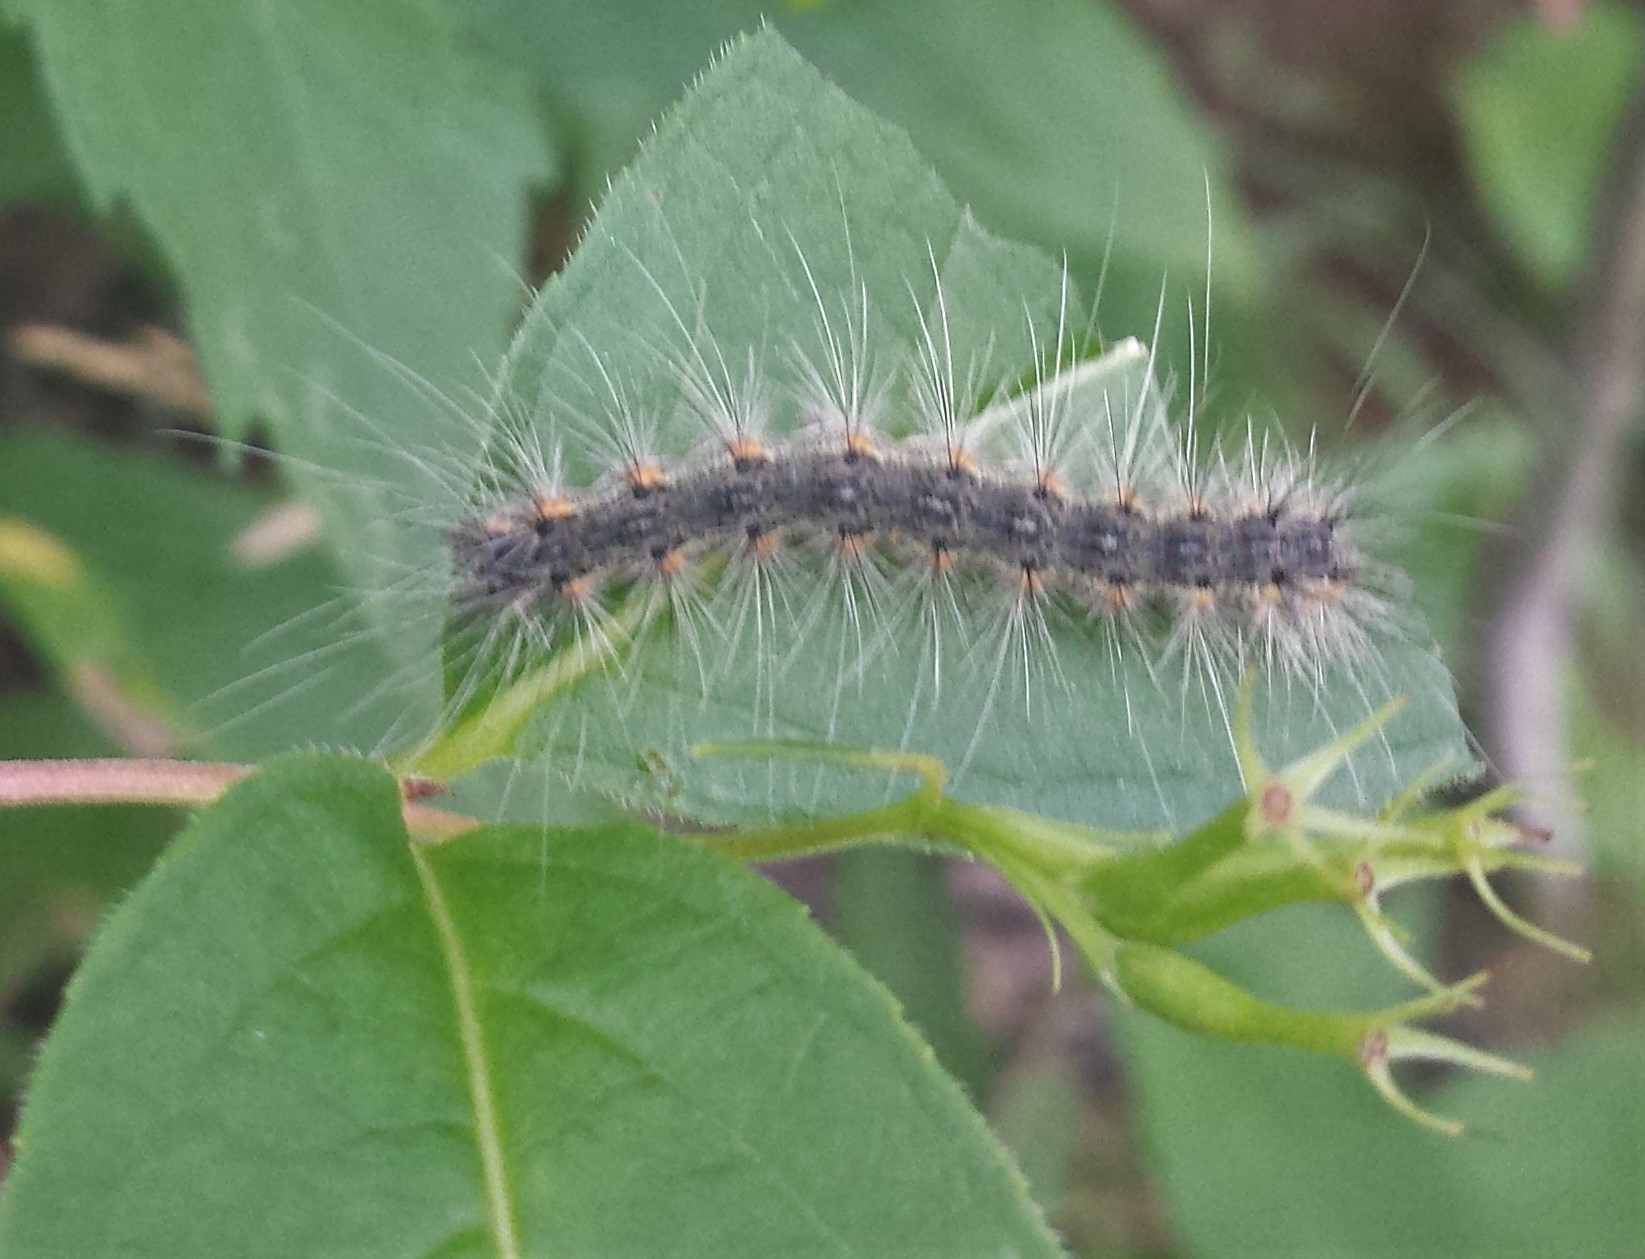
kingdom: Animalia
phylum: Arthropoda
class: Insecta
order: Lepidoptera
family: Erebidae
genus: Hyphantria
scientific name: Hyphantria cunea
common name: American white moth
